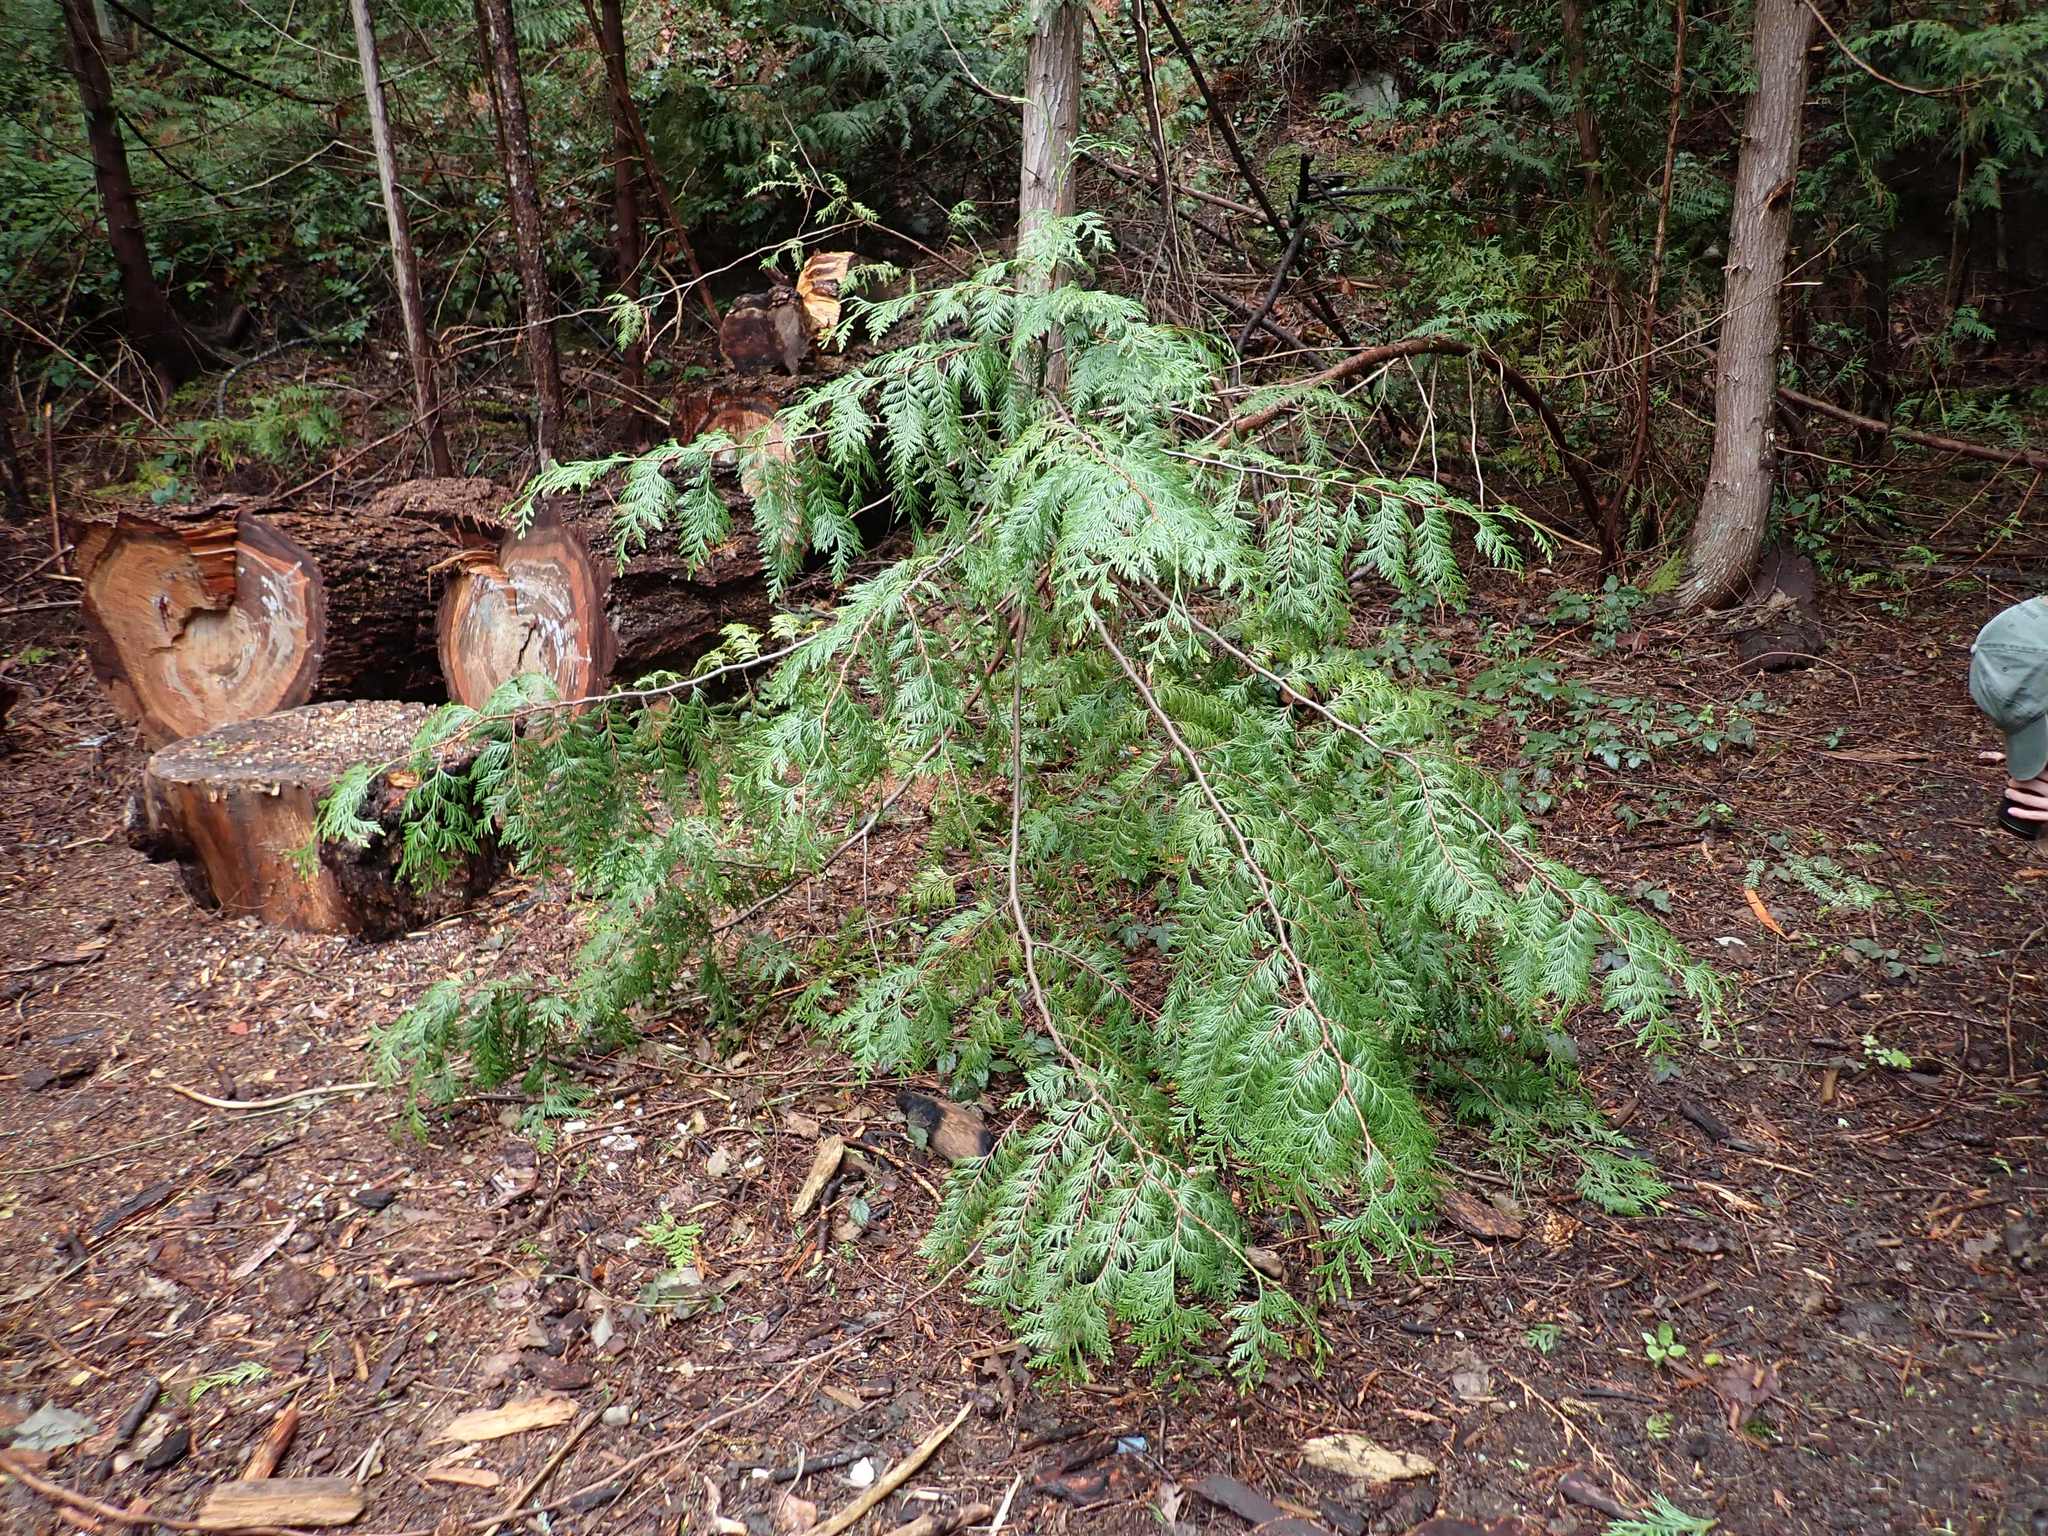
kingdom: Plantae
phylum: Tracheophyta
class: Pinopsida
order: Pinales
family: Cupressaceae
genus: Thuja
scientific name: Thuja plicata
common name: Western red-cedar
